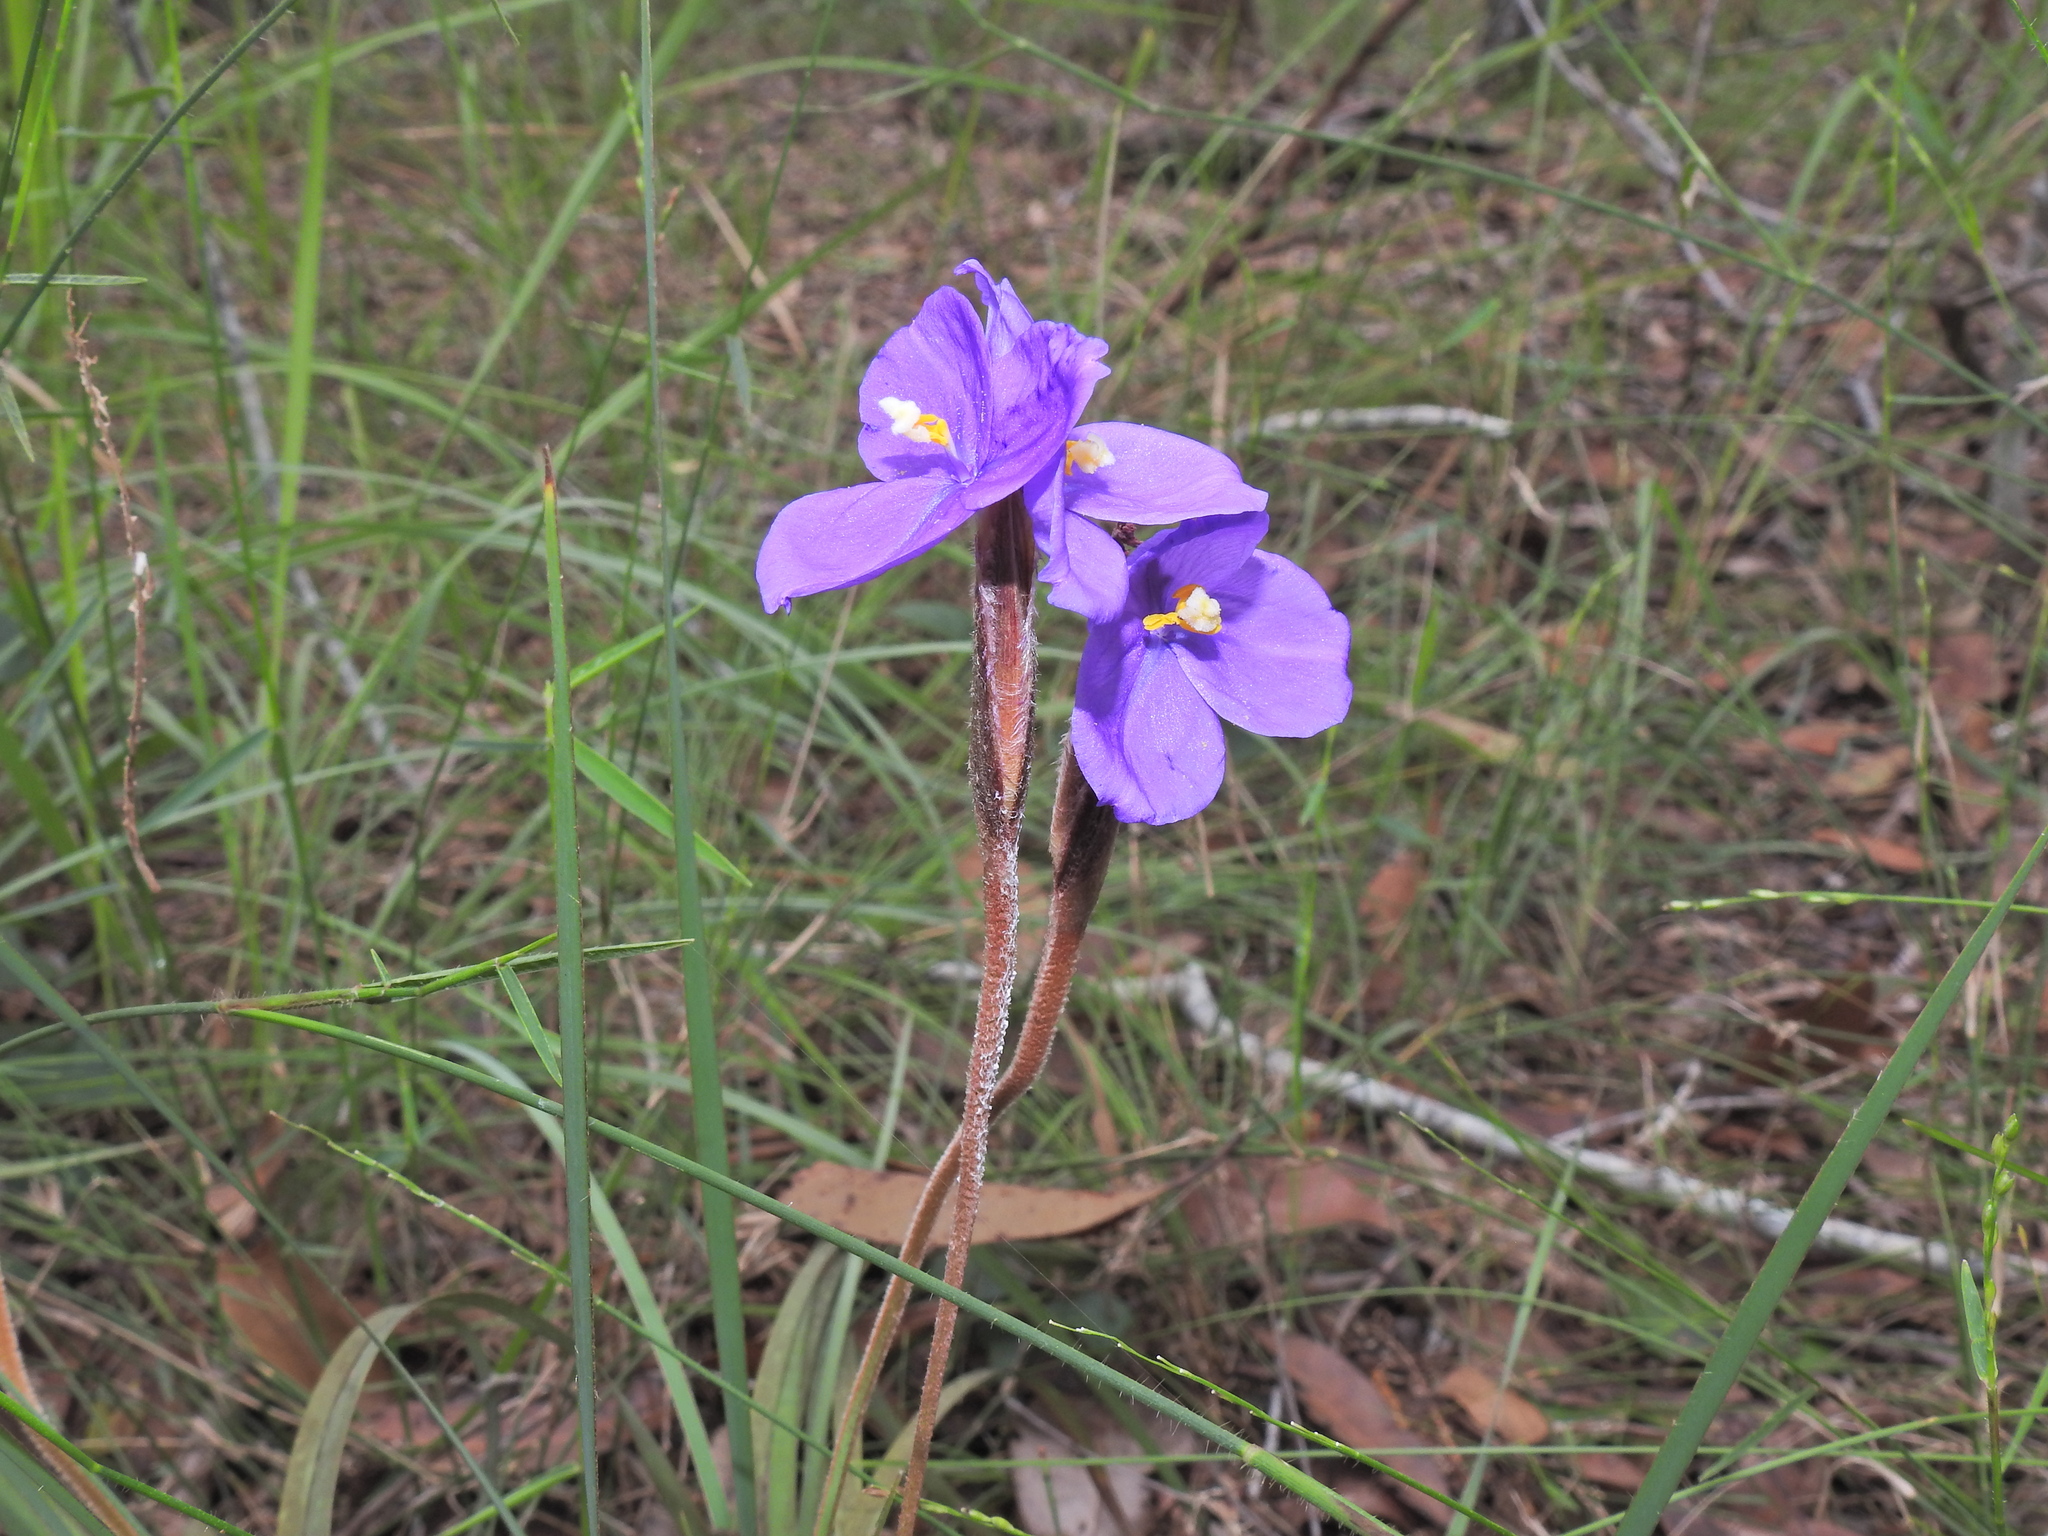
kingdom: Plantae
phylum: Tracheophyta
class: Liliopsida
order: Asparagales
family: Iridaceae
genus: Patersonia
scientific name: Patersonia sericea
